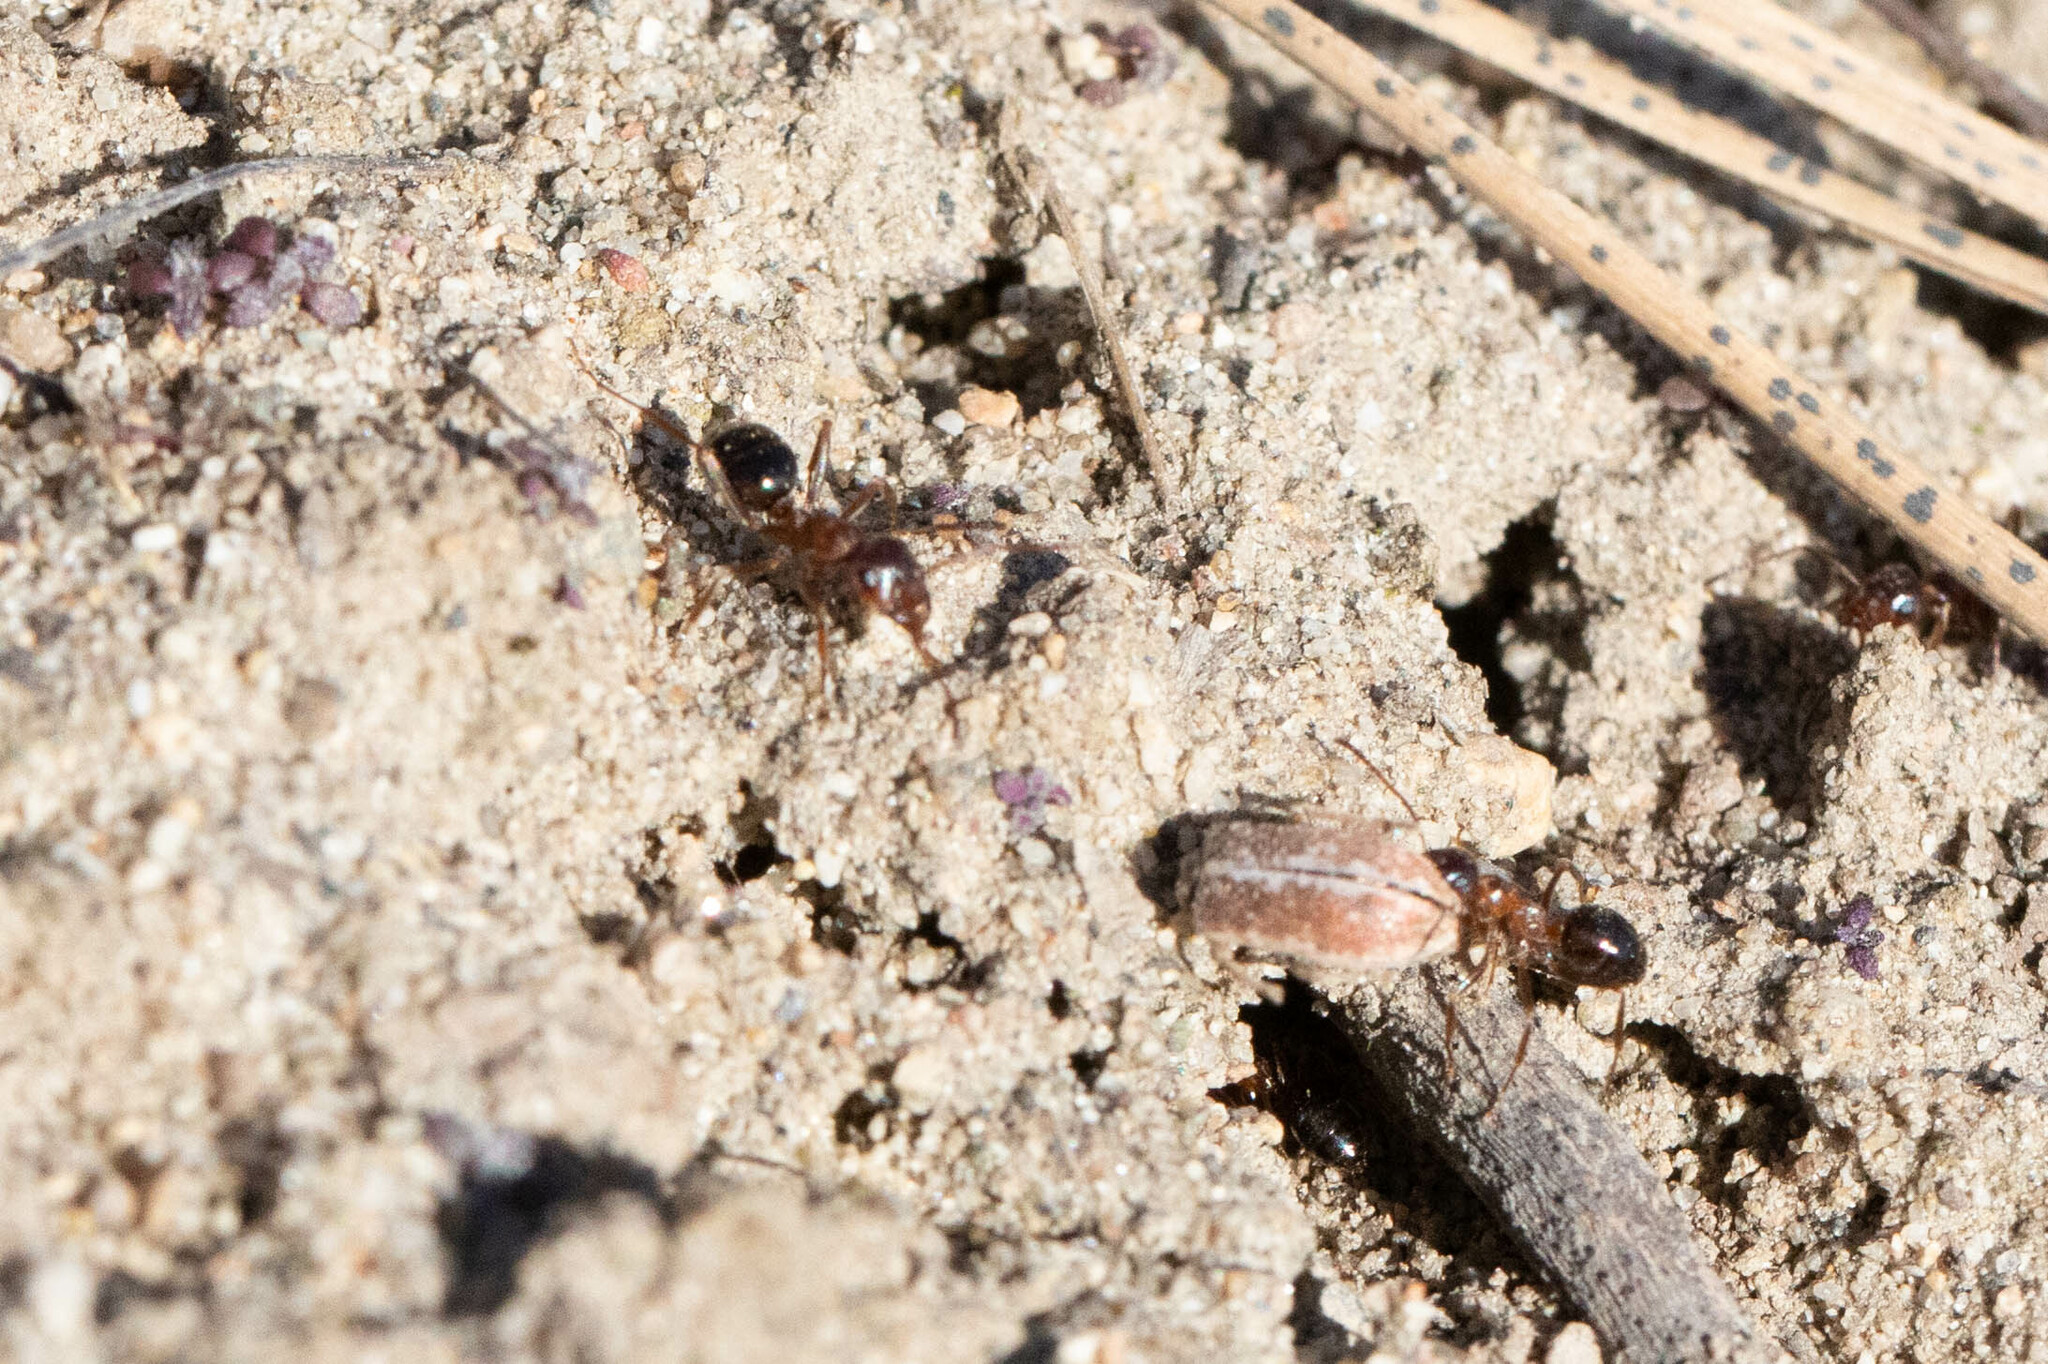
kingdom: Animalia
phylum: Arthropoda
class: Insecta
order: Coleoptera
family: Curculionidae
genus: Pachyrhinus
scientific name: Pachyrhinus californicus
